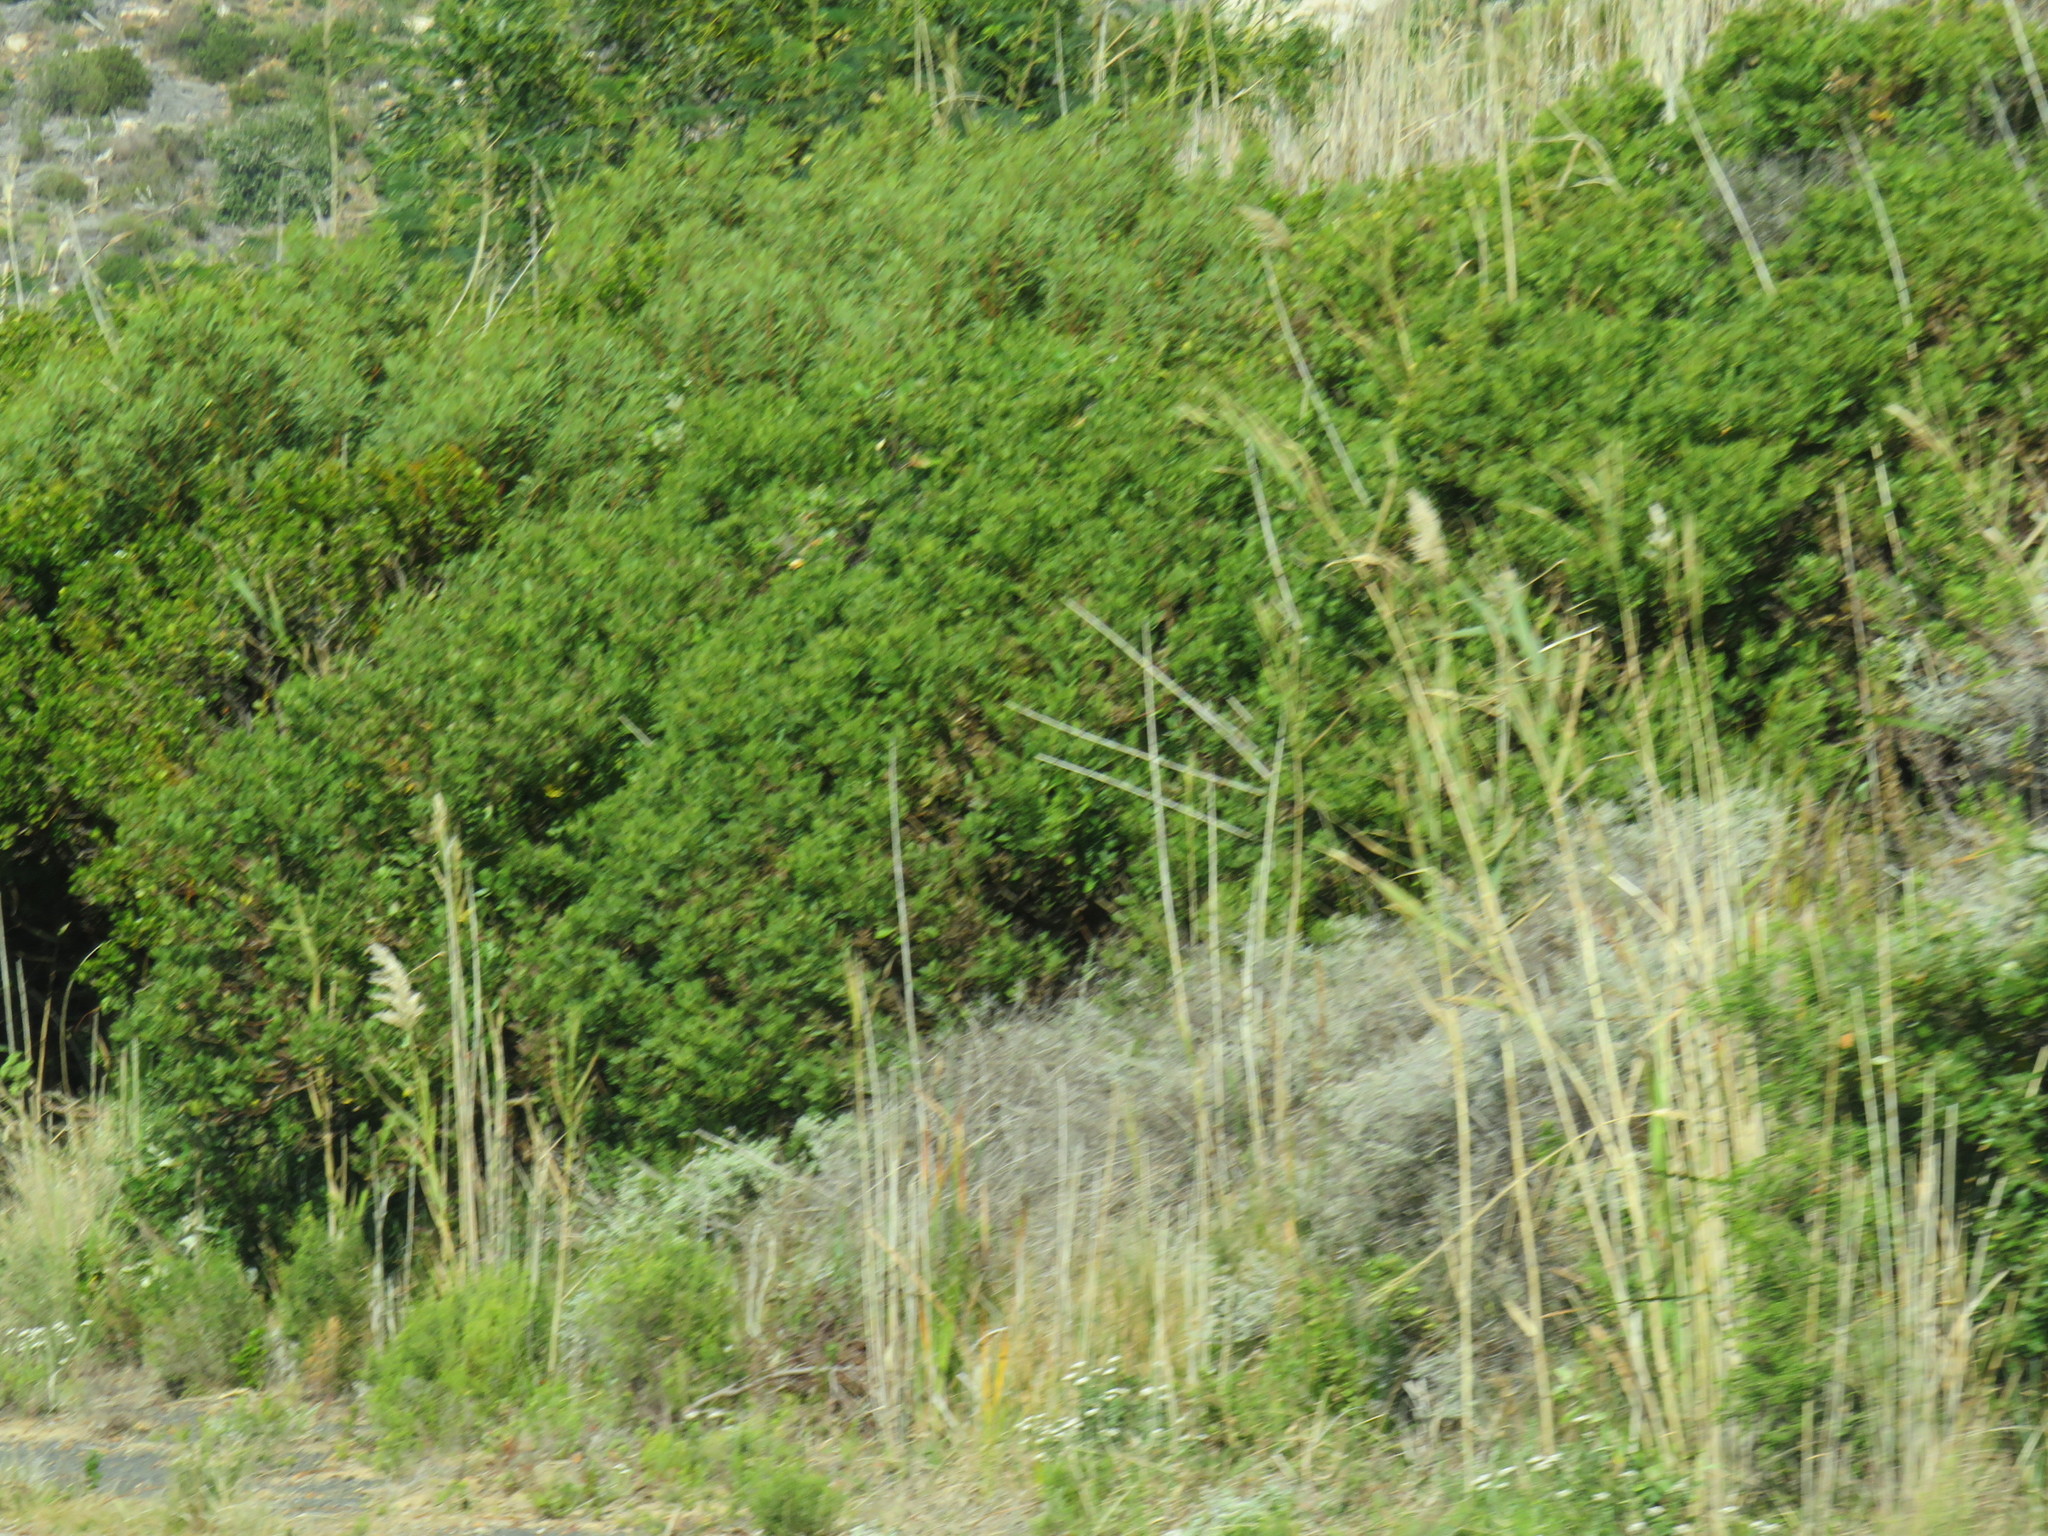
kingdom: Plantae
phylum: Tracheophyta
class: Liliopsida
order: Poales
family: Poaceae
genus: Phragmites
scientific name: Phragmites australis
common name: Common reed
